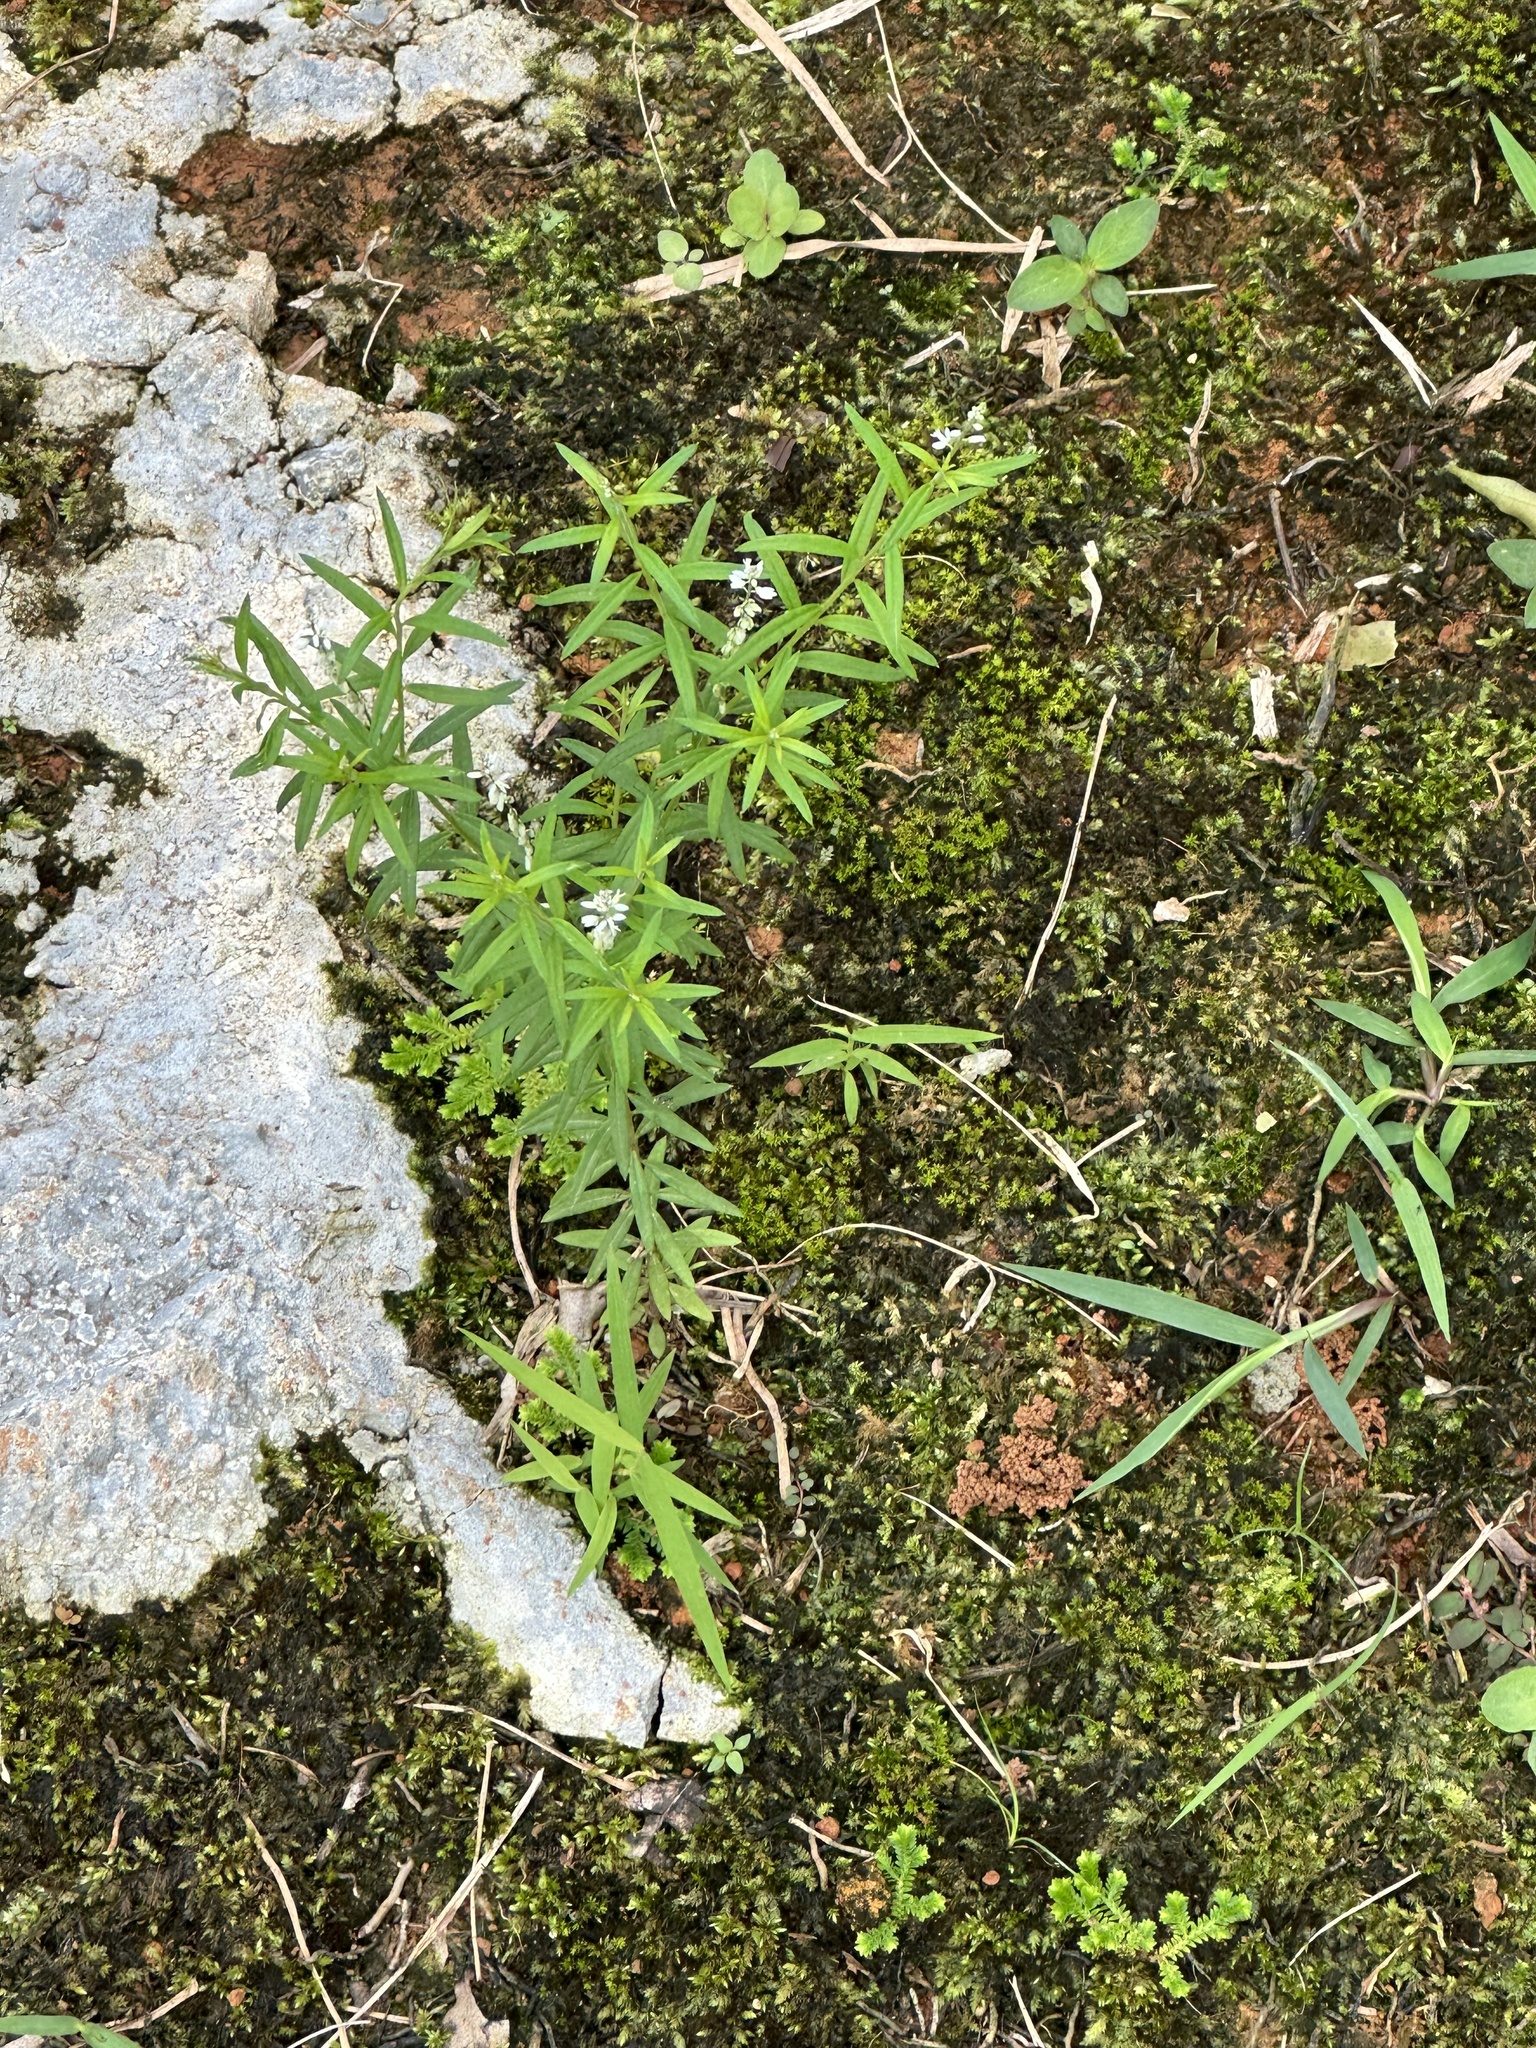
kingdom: Plantae
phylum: Tracheophyta
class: Magnoliopsida
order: Fabales
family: Polygalaceae
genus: Polygala
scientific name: Polygala paniculata
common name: Orosne
